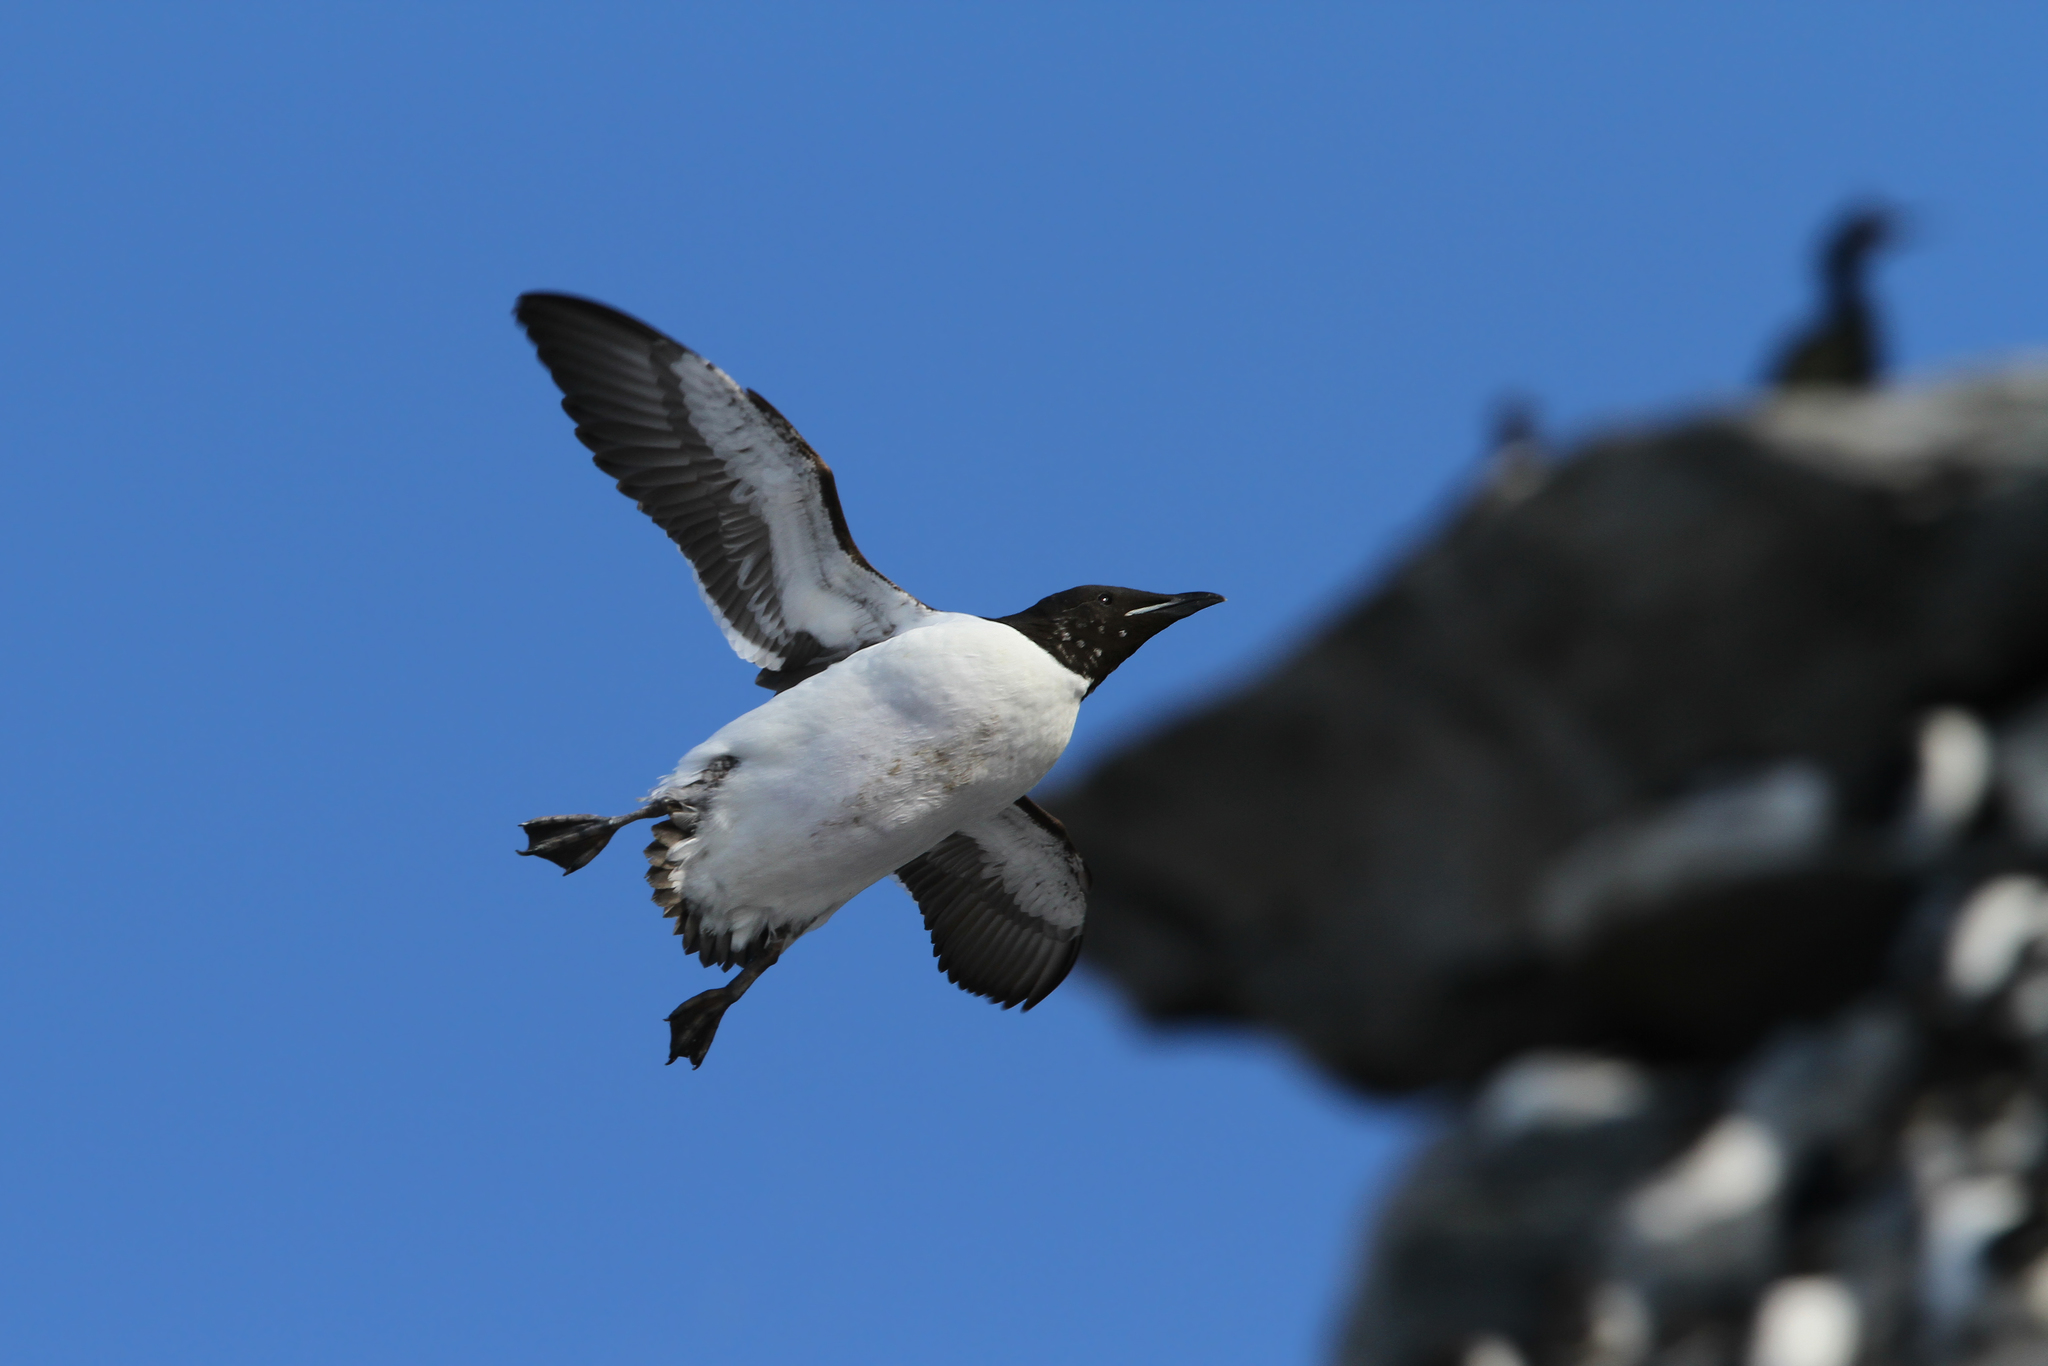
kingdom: Animalia
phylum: Chordata
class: Aves
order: Charadriiformes
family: Alcidae
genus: Uria
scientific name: Uria lomvia
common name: Thick-billed murre
